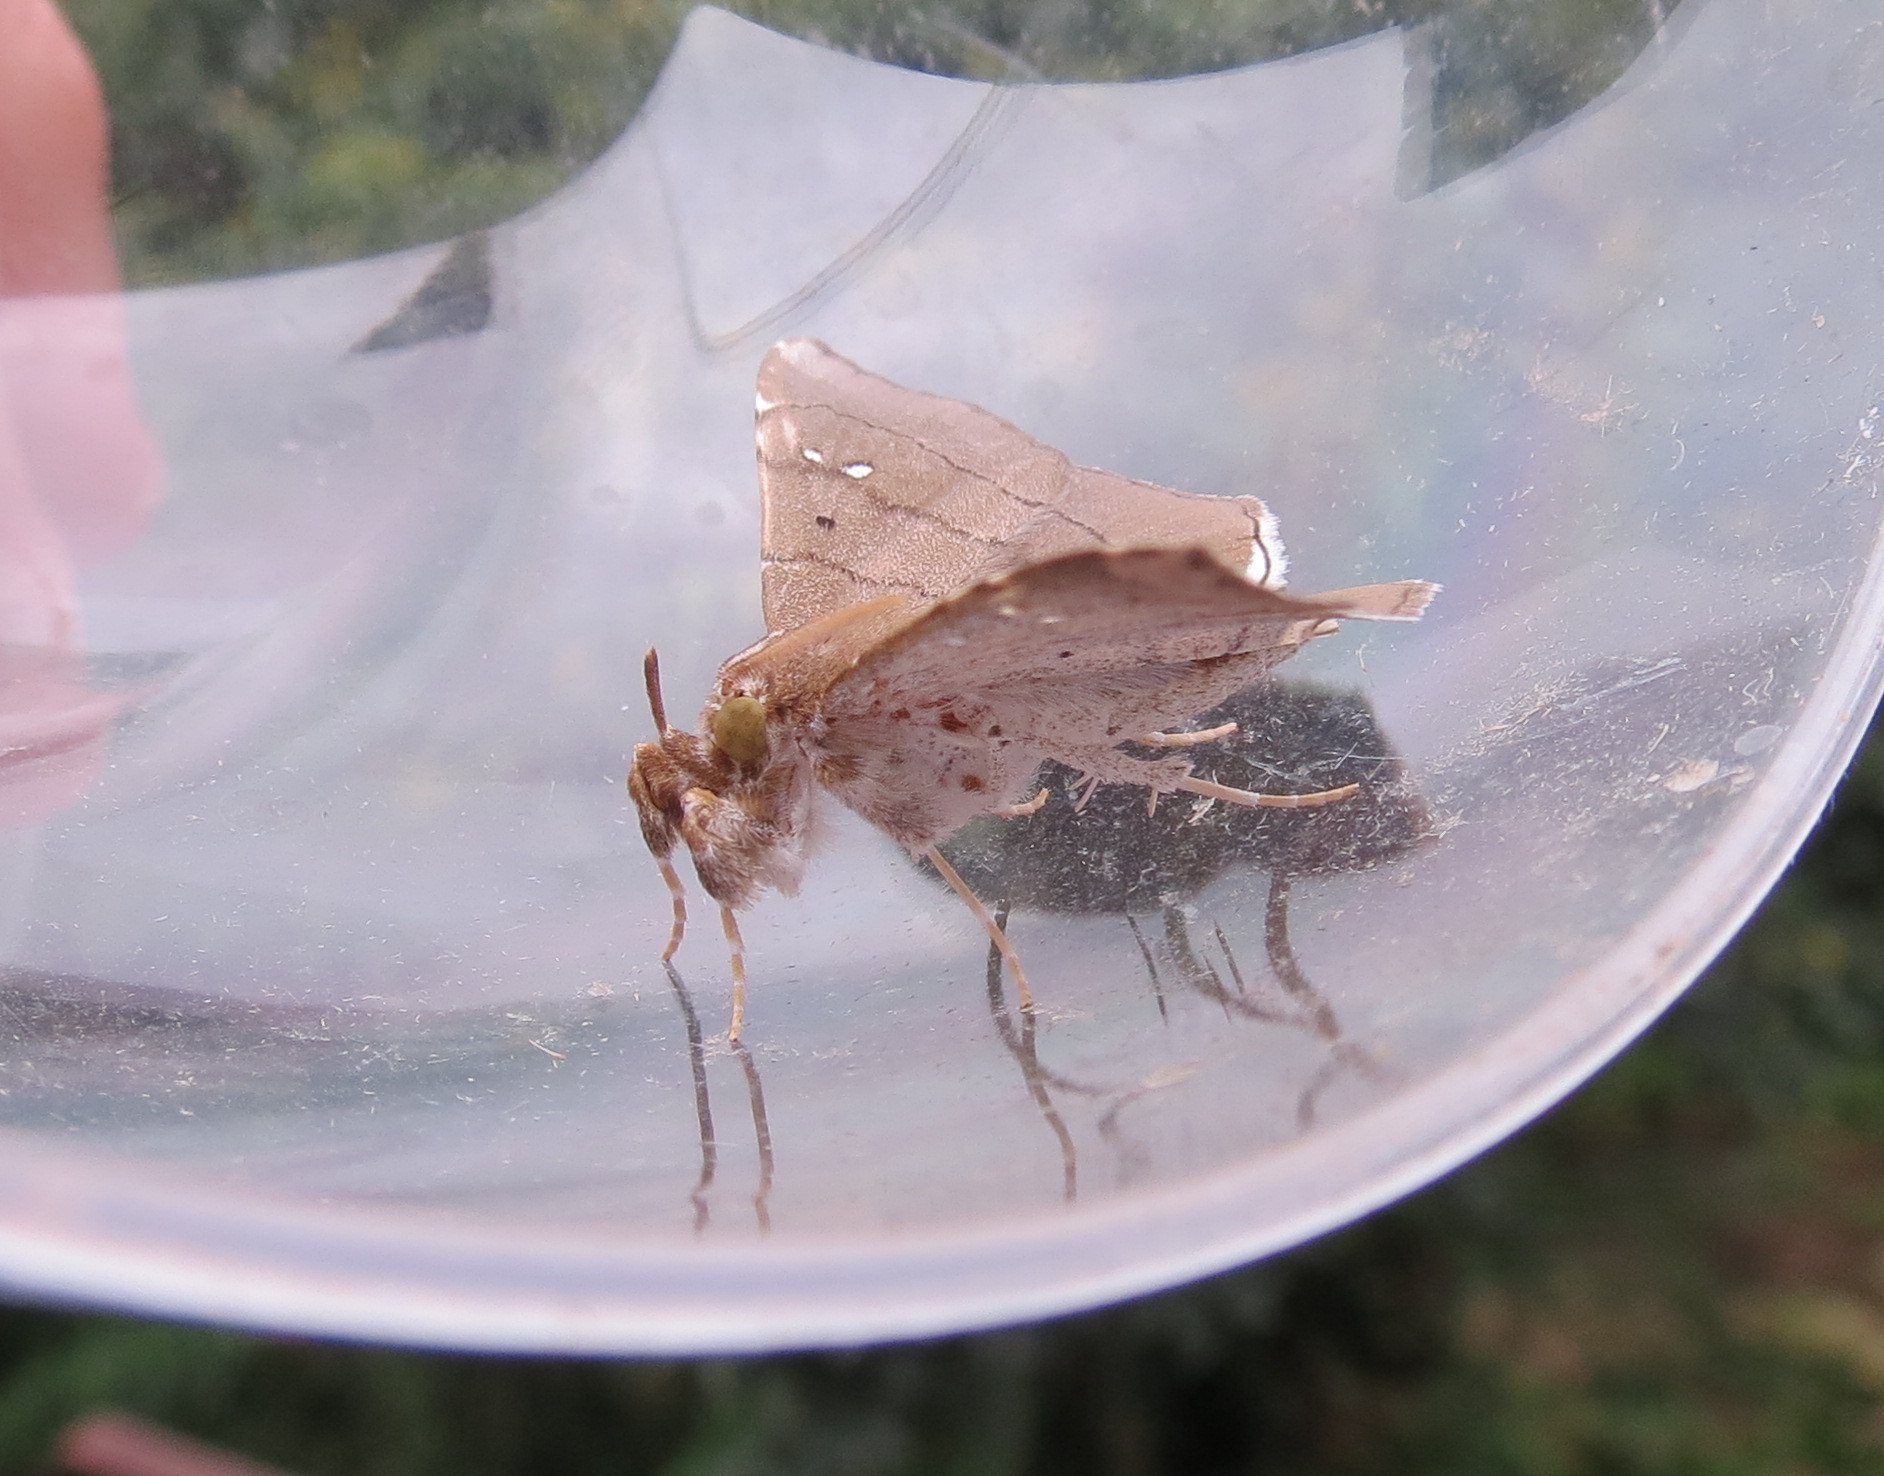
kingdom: Animalia
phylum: Arthropoda
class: Insecta
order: Lepidoptera
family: Erebidae
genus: Gracilodes
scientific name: Gracilodes nysa
